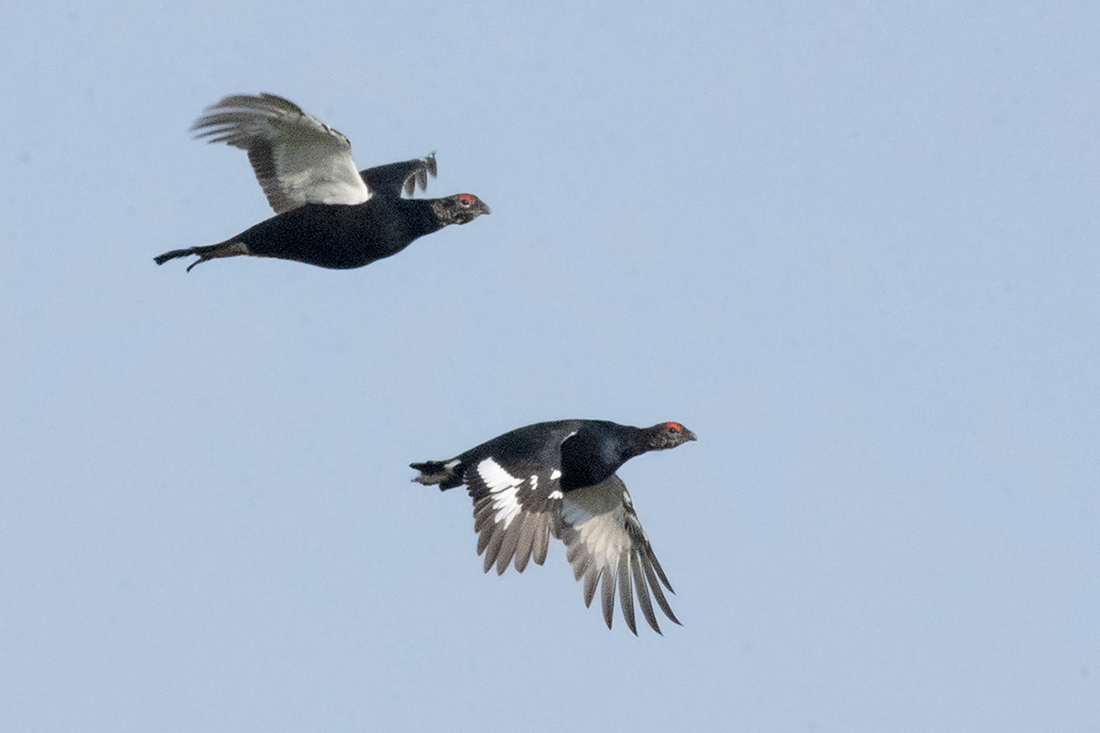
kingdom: Animalia
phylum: Chordata
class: Aves
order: Galliformes
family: Phasianidae
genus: Lyrurus
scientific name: Lyrurus tetrix
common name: Black grouse
